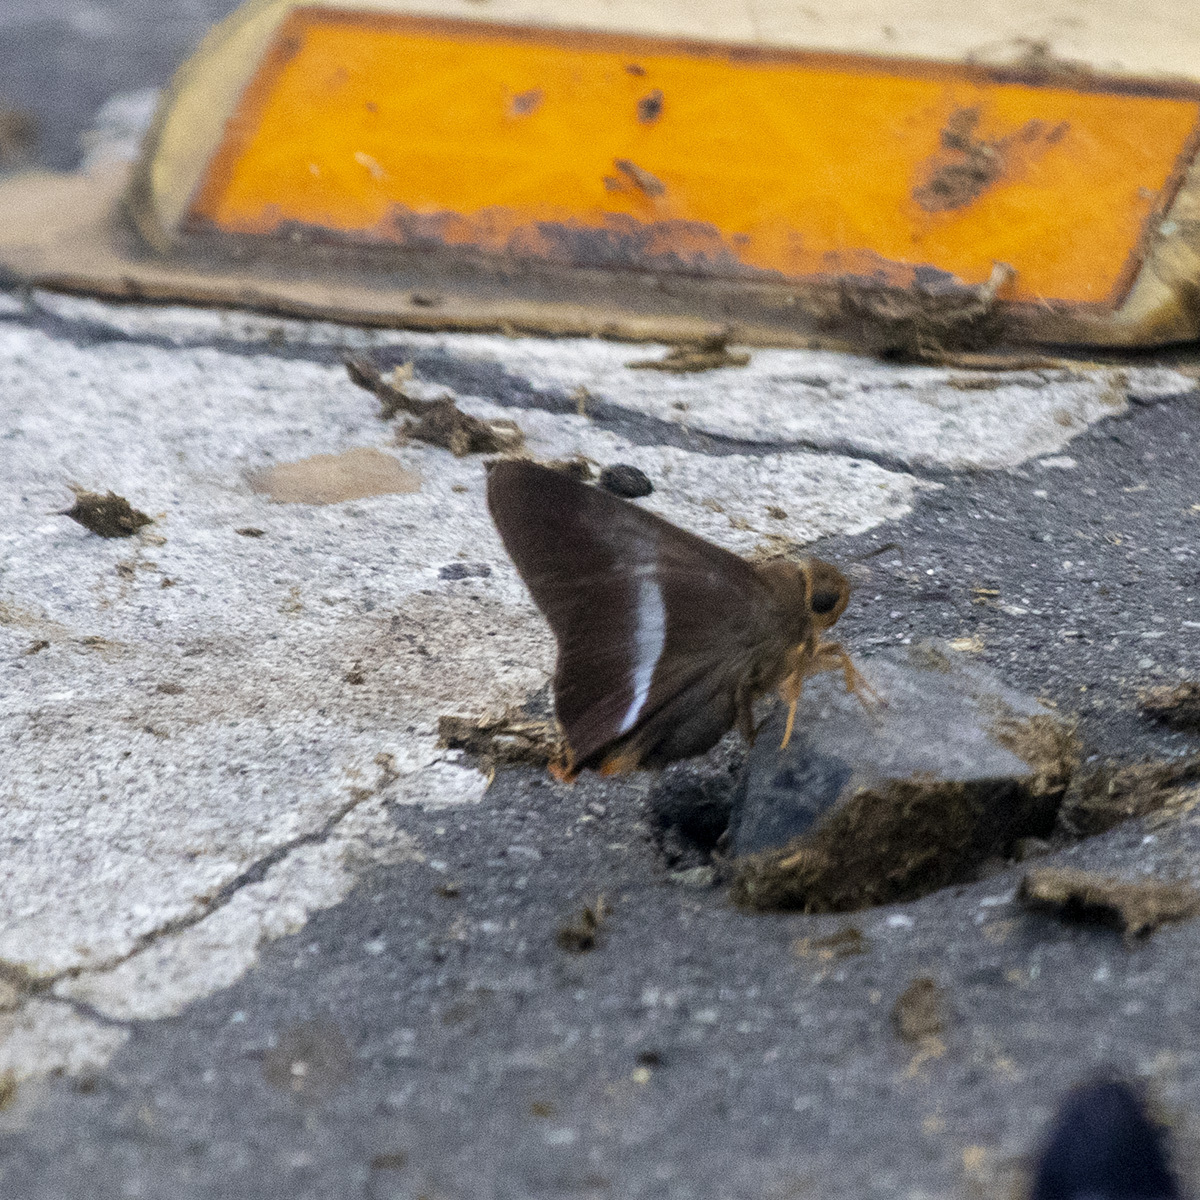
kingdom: Animalia
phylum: Arthropoda
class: Insecta
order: Lepidoptera
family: Hesperiidae
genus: Bibasis
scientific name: Bibasis sena
